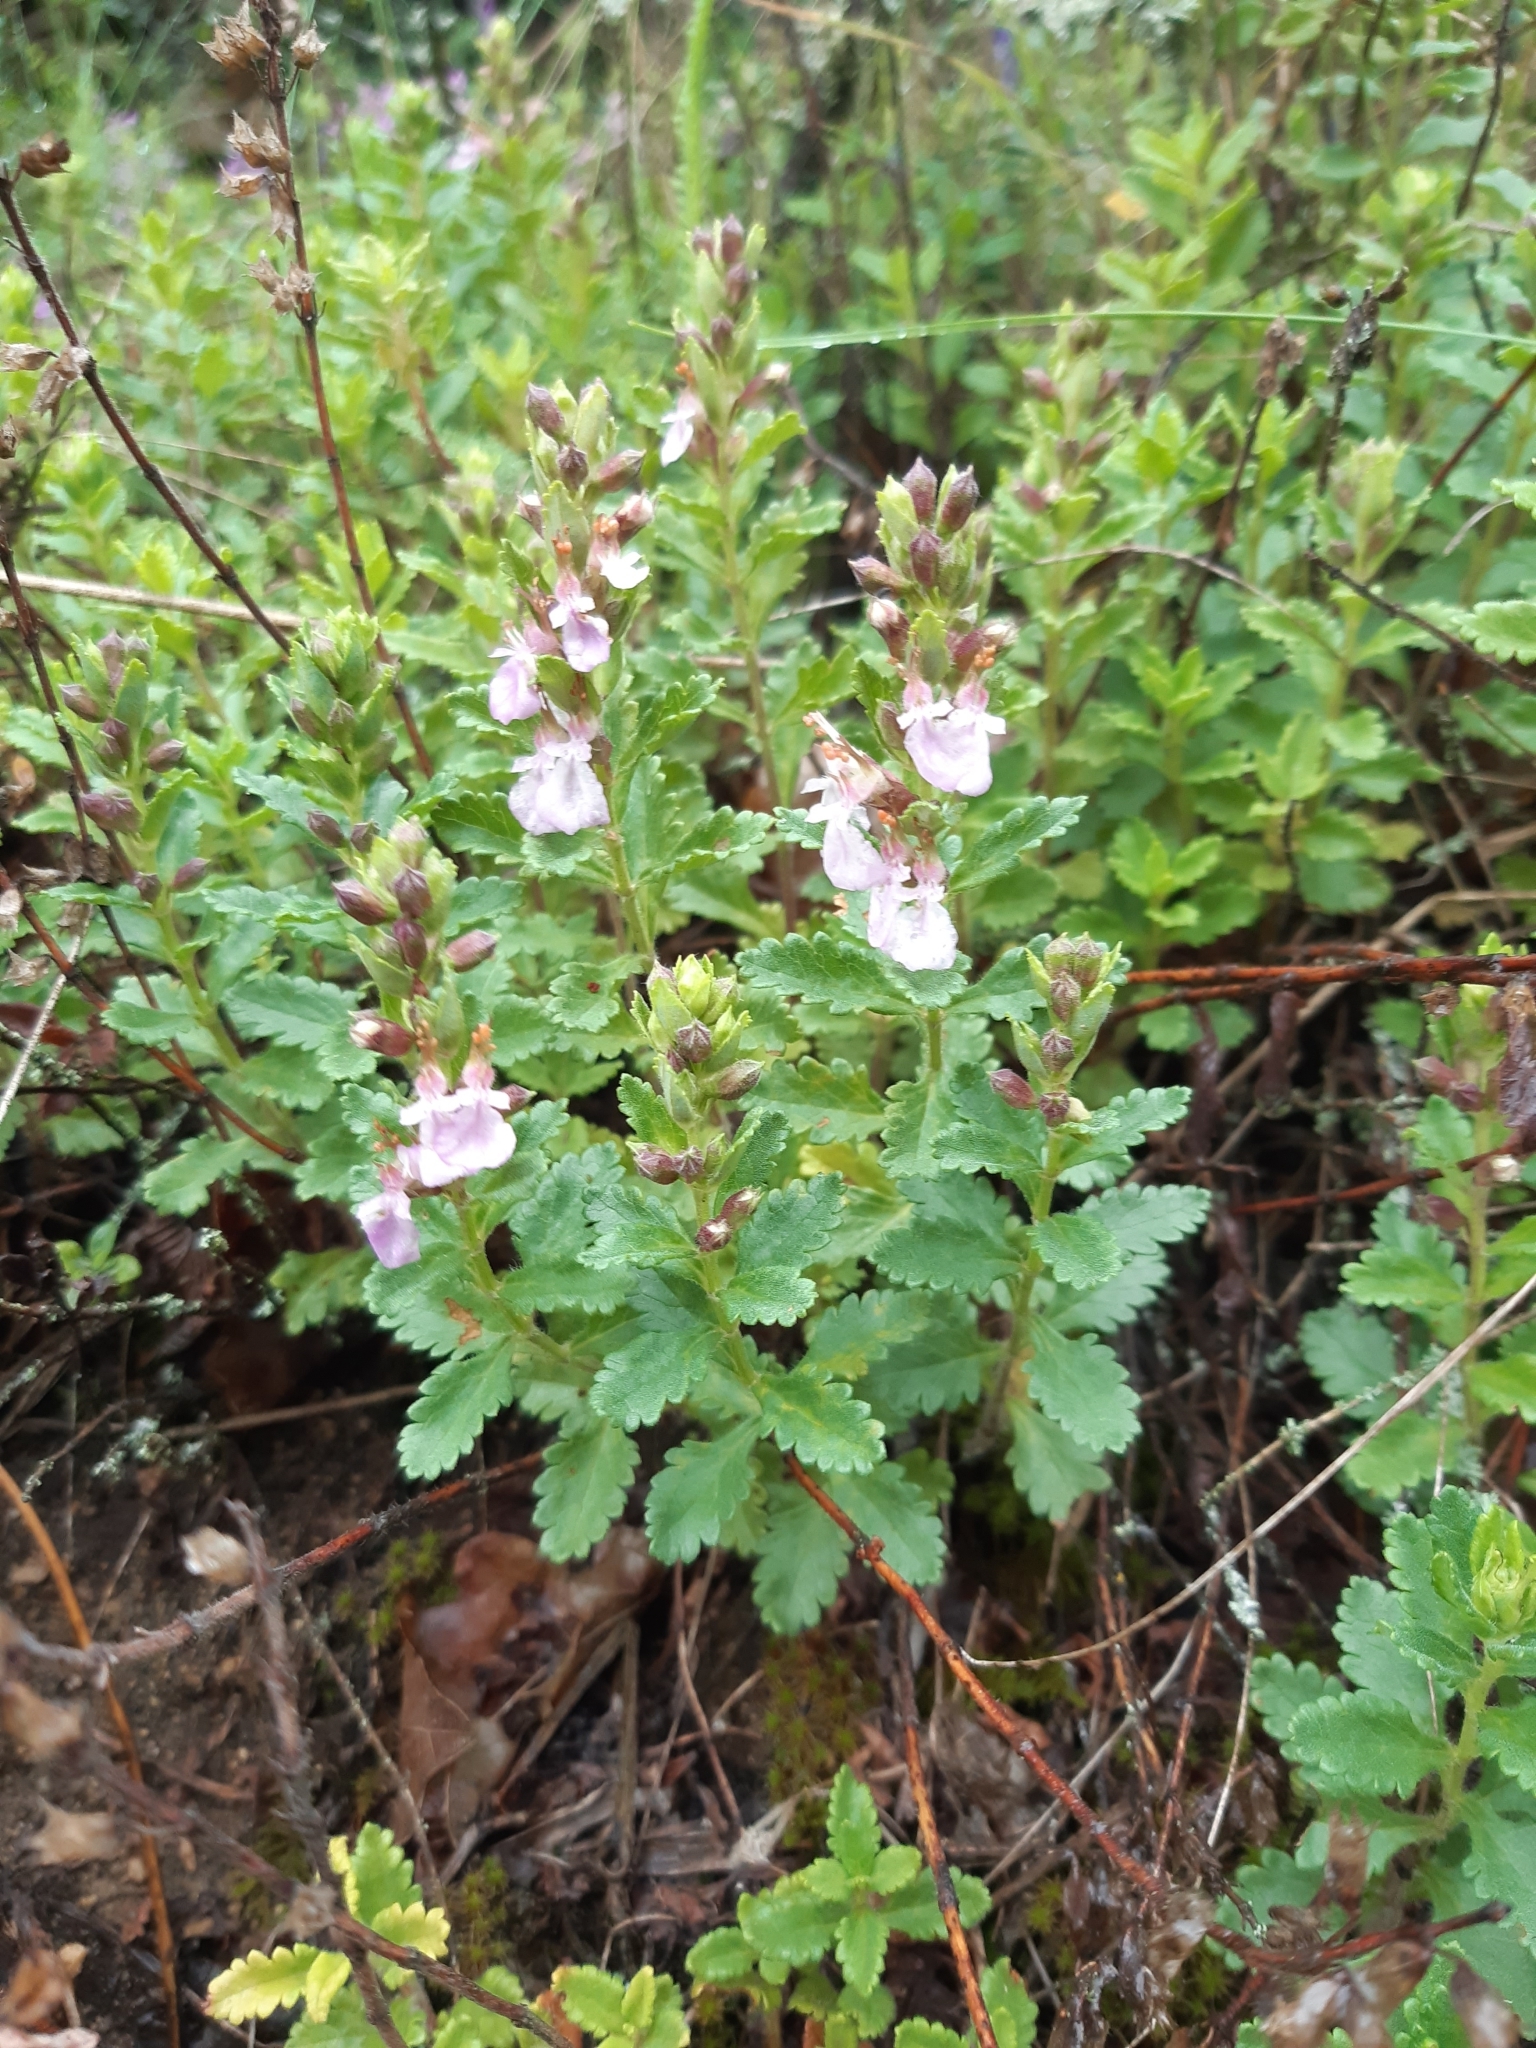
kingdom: Plantae
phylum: Tracheophyta
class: Magnoliopsida
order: Lamiales
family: Lamiaceae
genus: Teucrium
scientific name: Teucrium chamaedrys
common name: Wall germander
